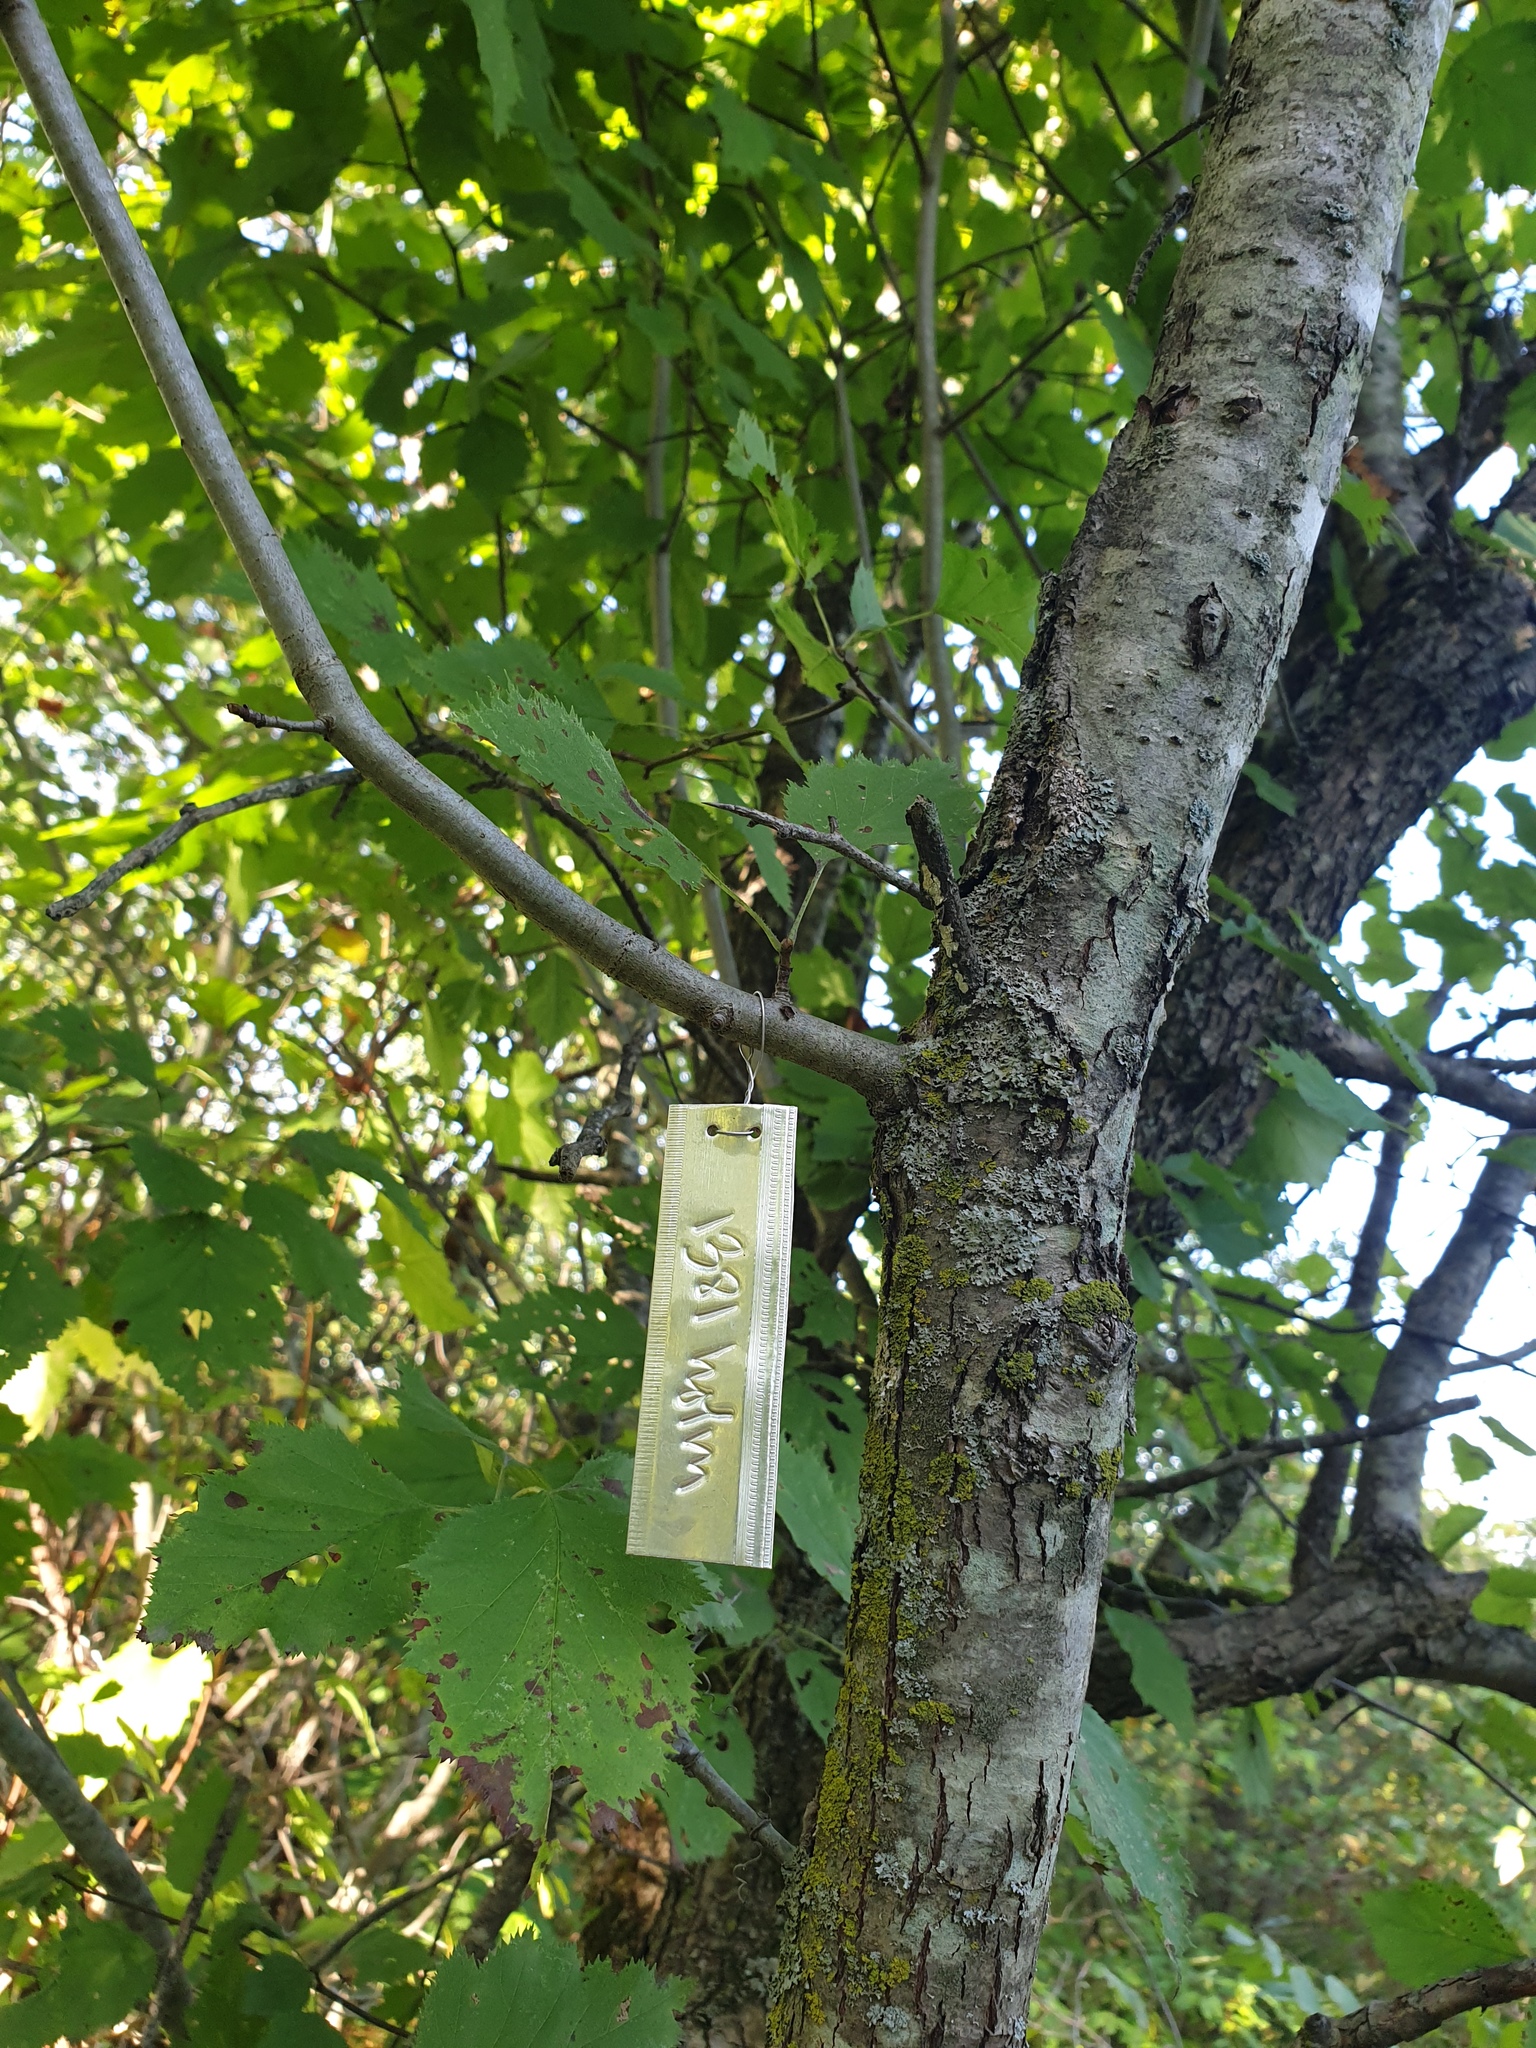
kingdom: Plantae
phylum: Tracheophyta
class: Magnoliopsida
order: Rosales
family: Rosaceae
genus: Crataegus
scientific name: Crataegus holmesiana
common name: Holmes' hawthorn
